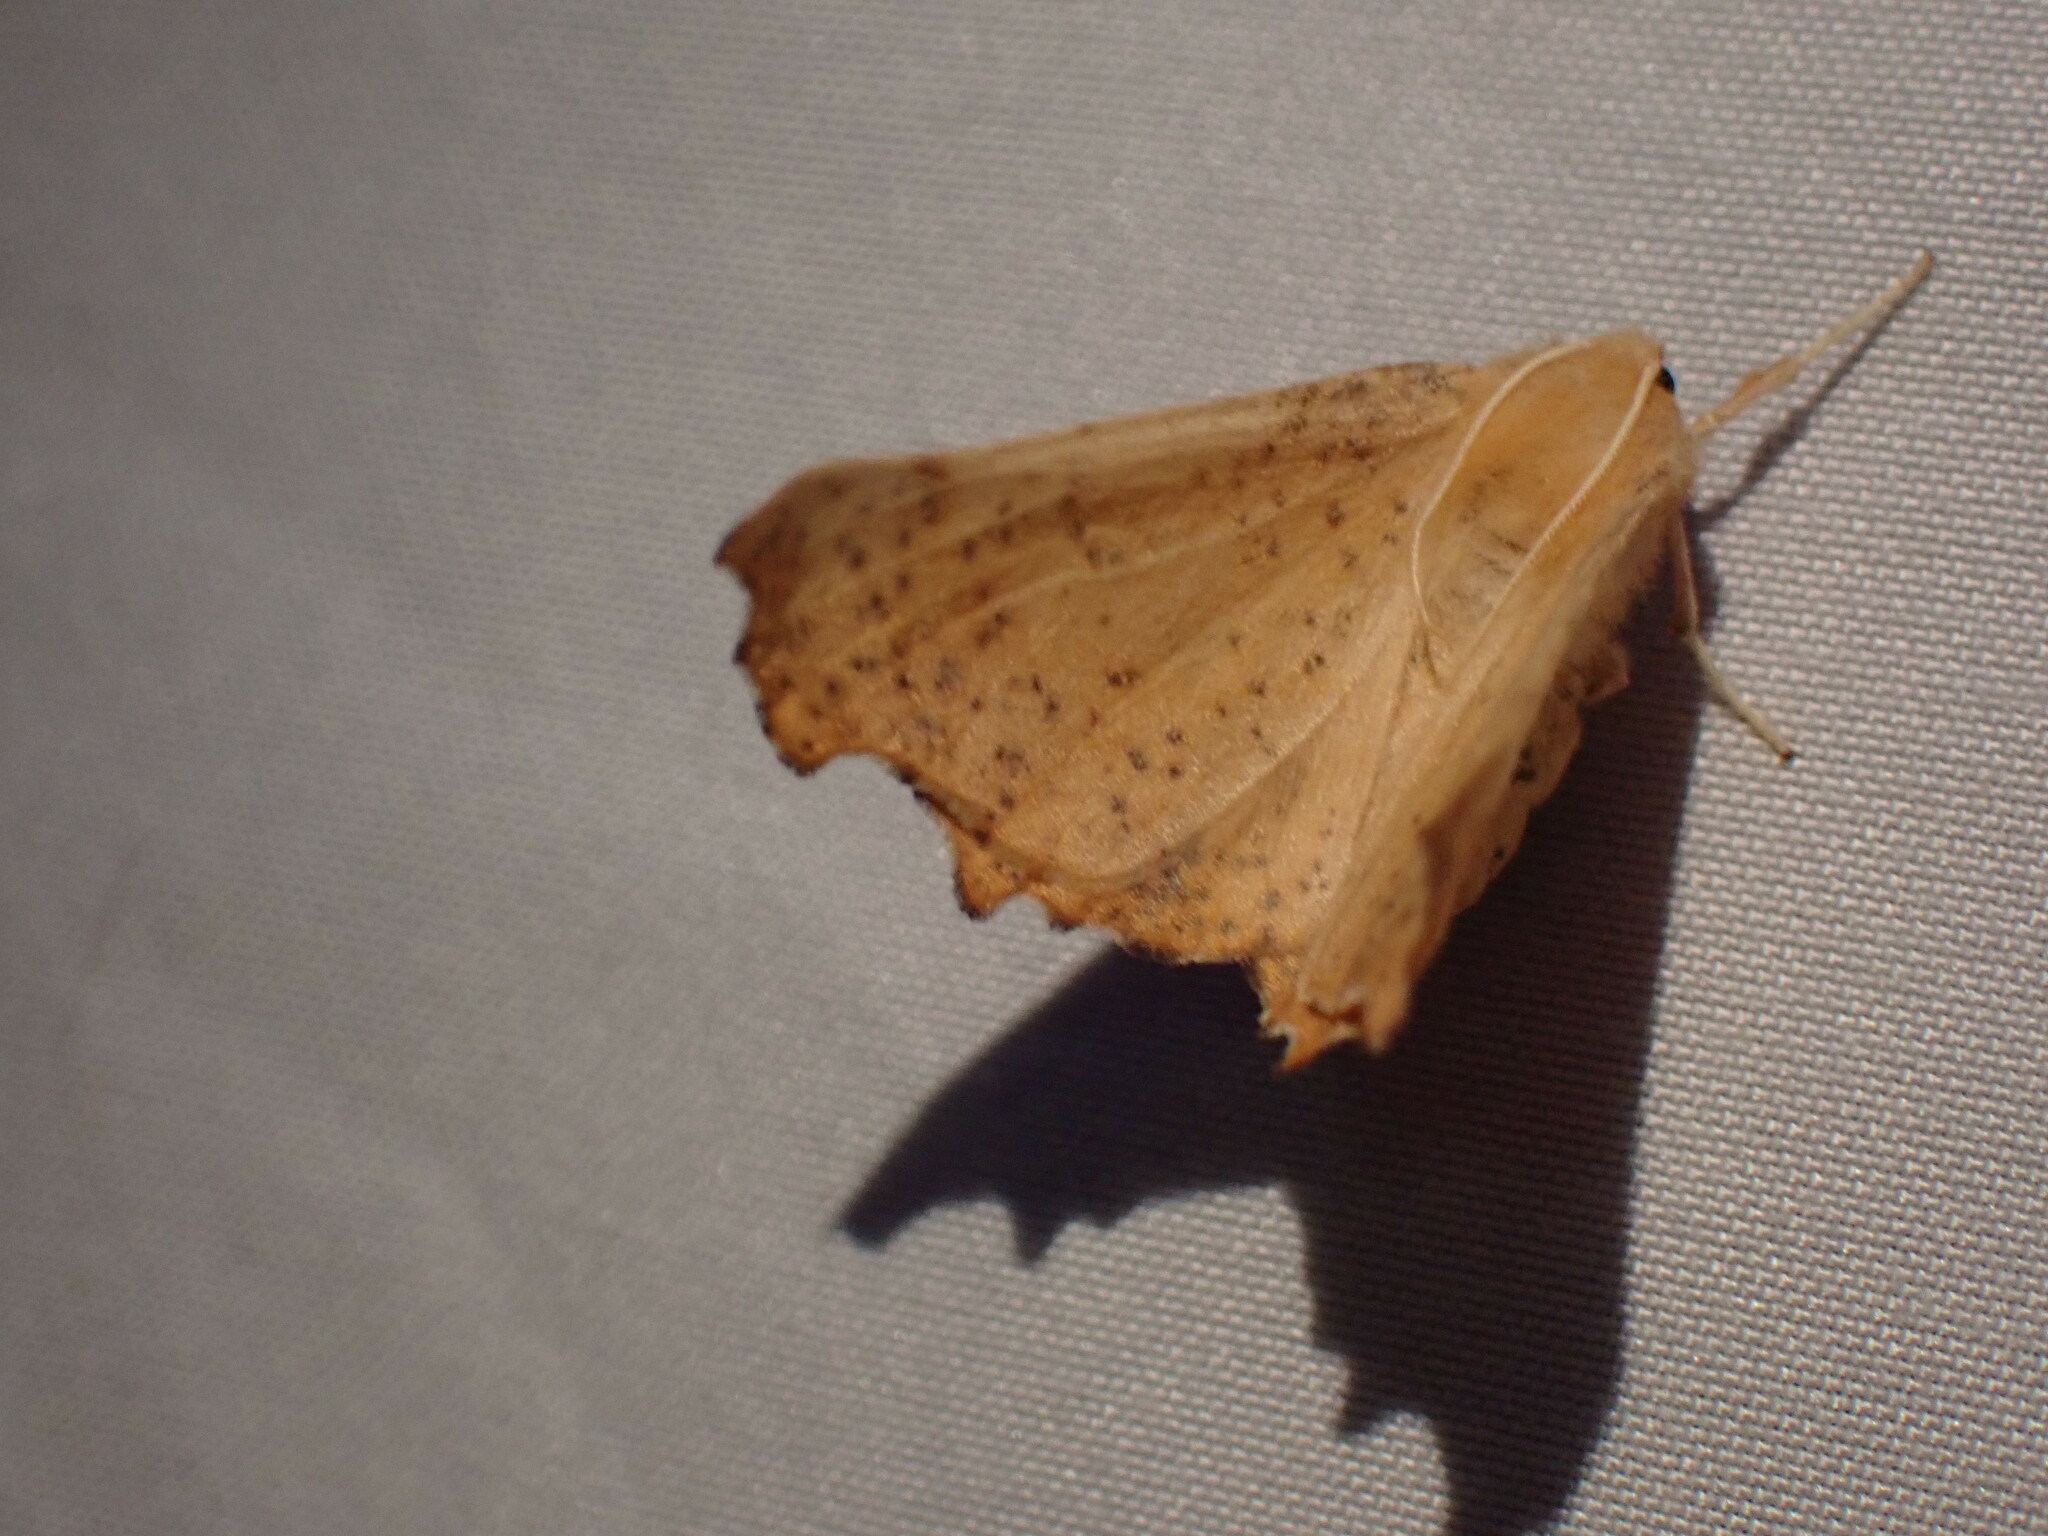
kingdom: Animalia
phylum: Arthropoda
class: Insecta
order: Lepidoptera
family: Geometridae
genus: Ennomos
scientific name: Ennomos magnaria
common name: Maple spanworm
